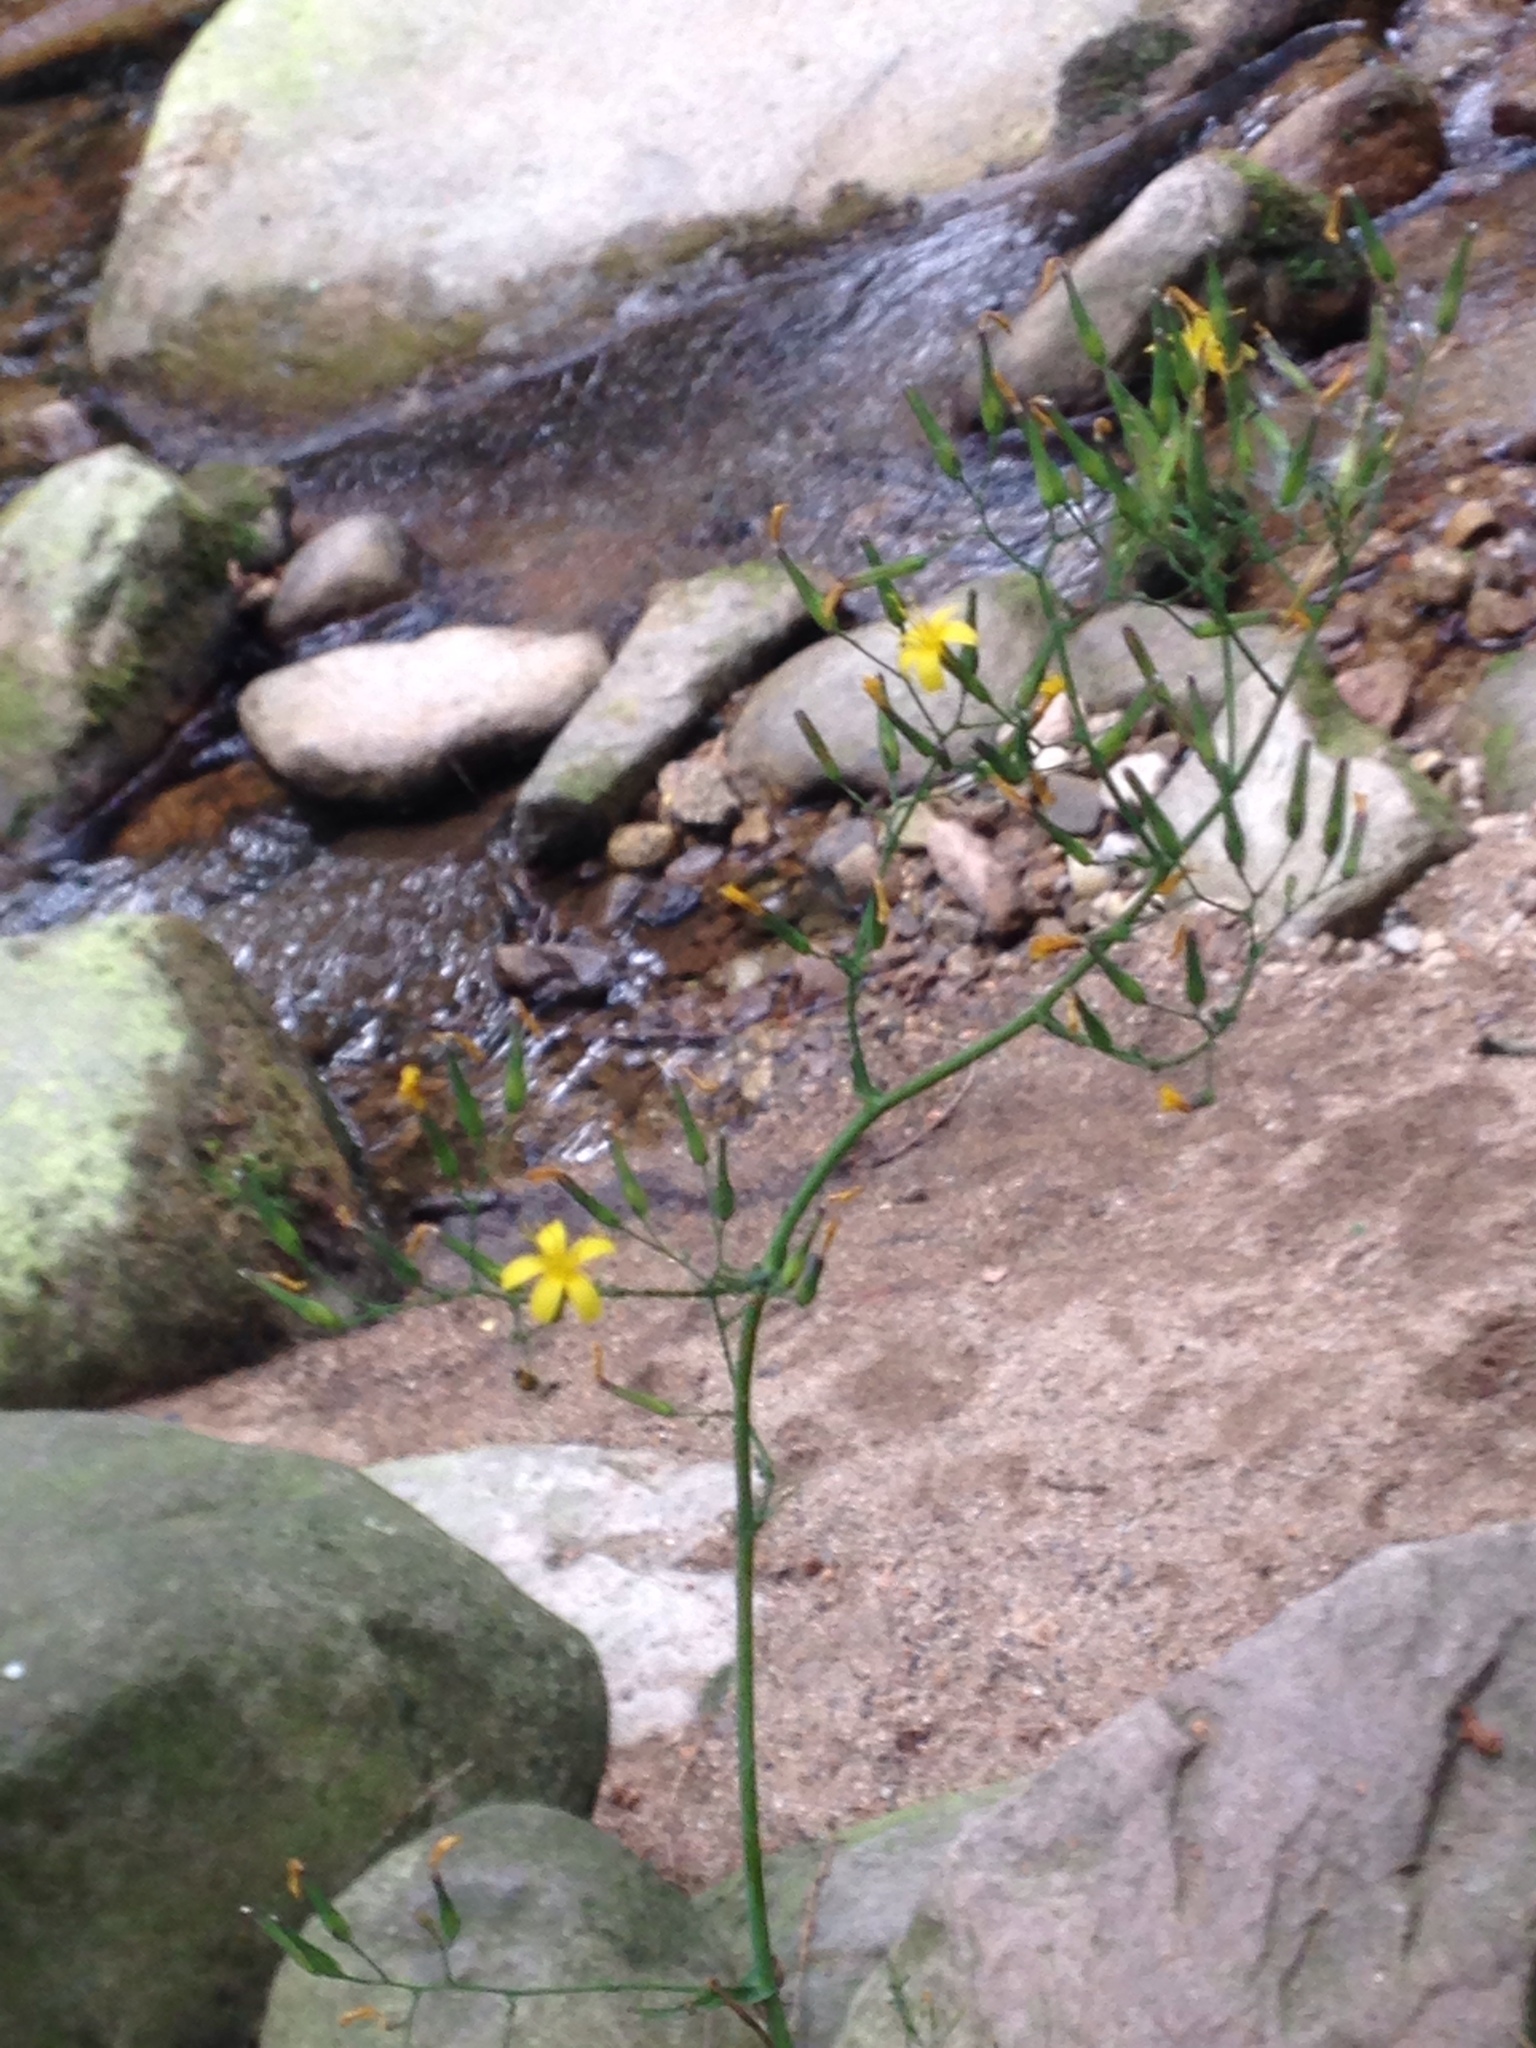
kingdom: Plantae
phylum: Tracheophyta
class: Magnoliopsida
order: Asterales
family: Asteraceae
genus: Mycelis
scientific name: Mycelis muralis
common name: Wall lettuce
